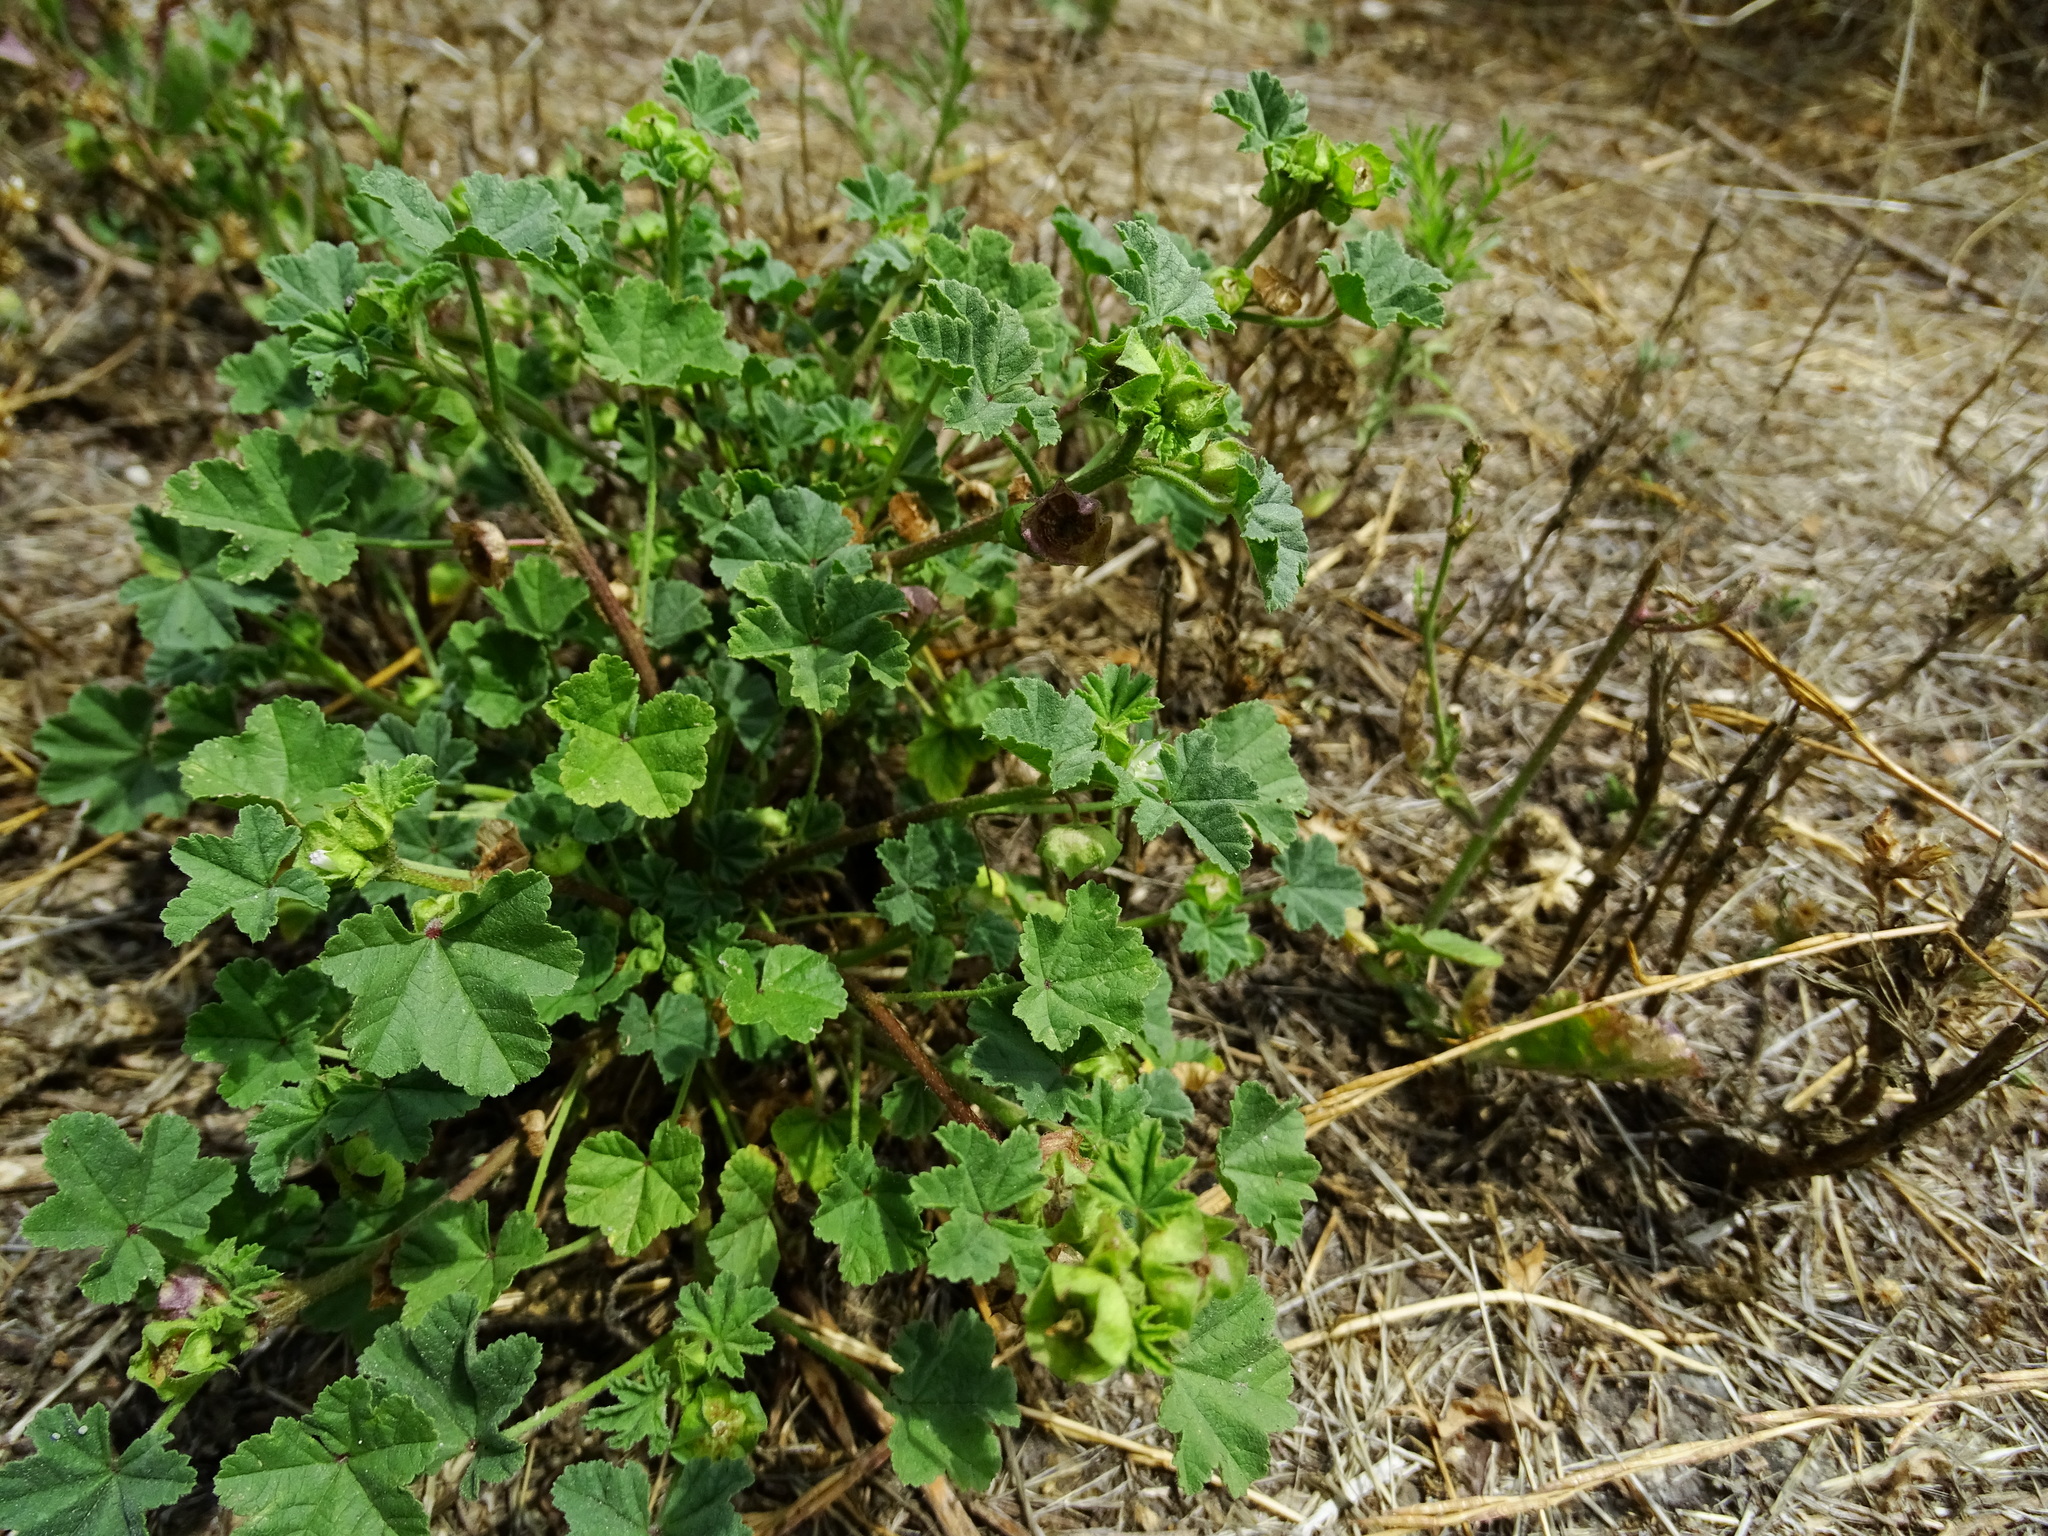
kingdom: Plantae
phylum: Tracheophyta
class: Magnoliopsida
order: Malvales
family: Malvaceae
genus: Malva
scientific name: Malva parviflora
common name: Least mallow
